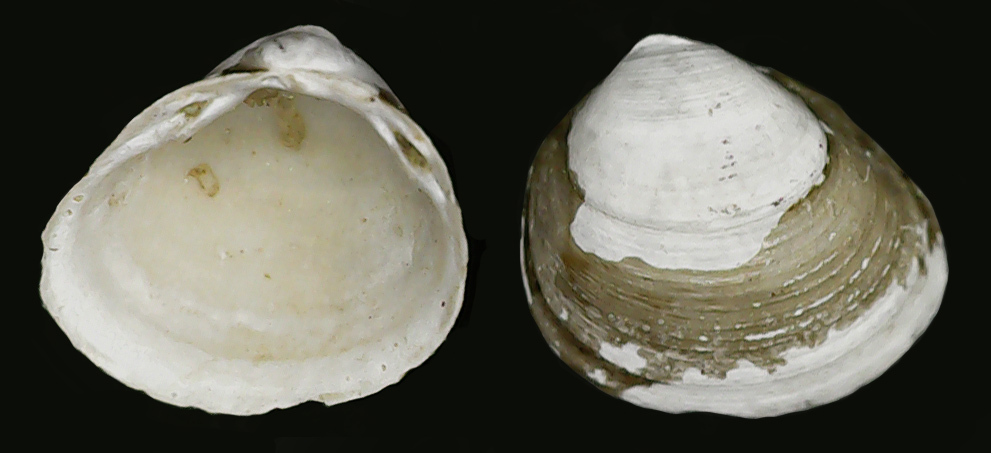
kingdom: Animalia
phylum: Mollusca
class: Bivalvia
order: Sphaeriida
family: Sphaeriidae
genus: Euglesa
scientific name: Euglesa supina
